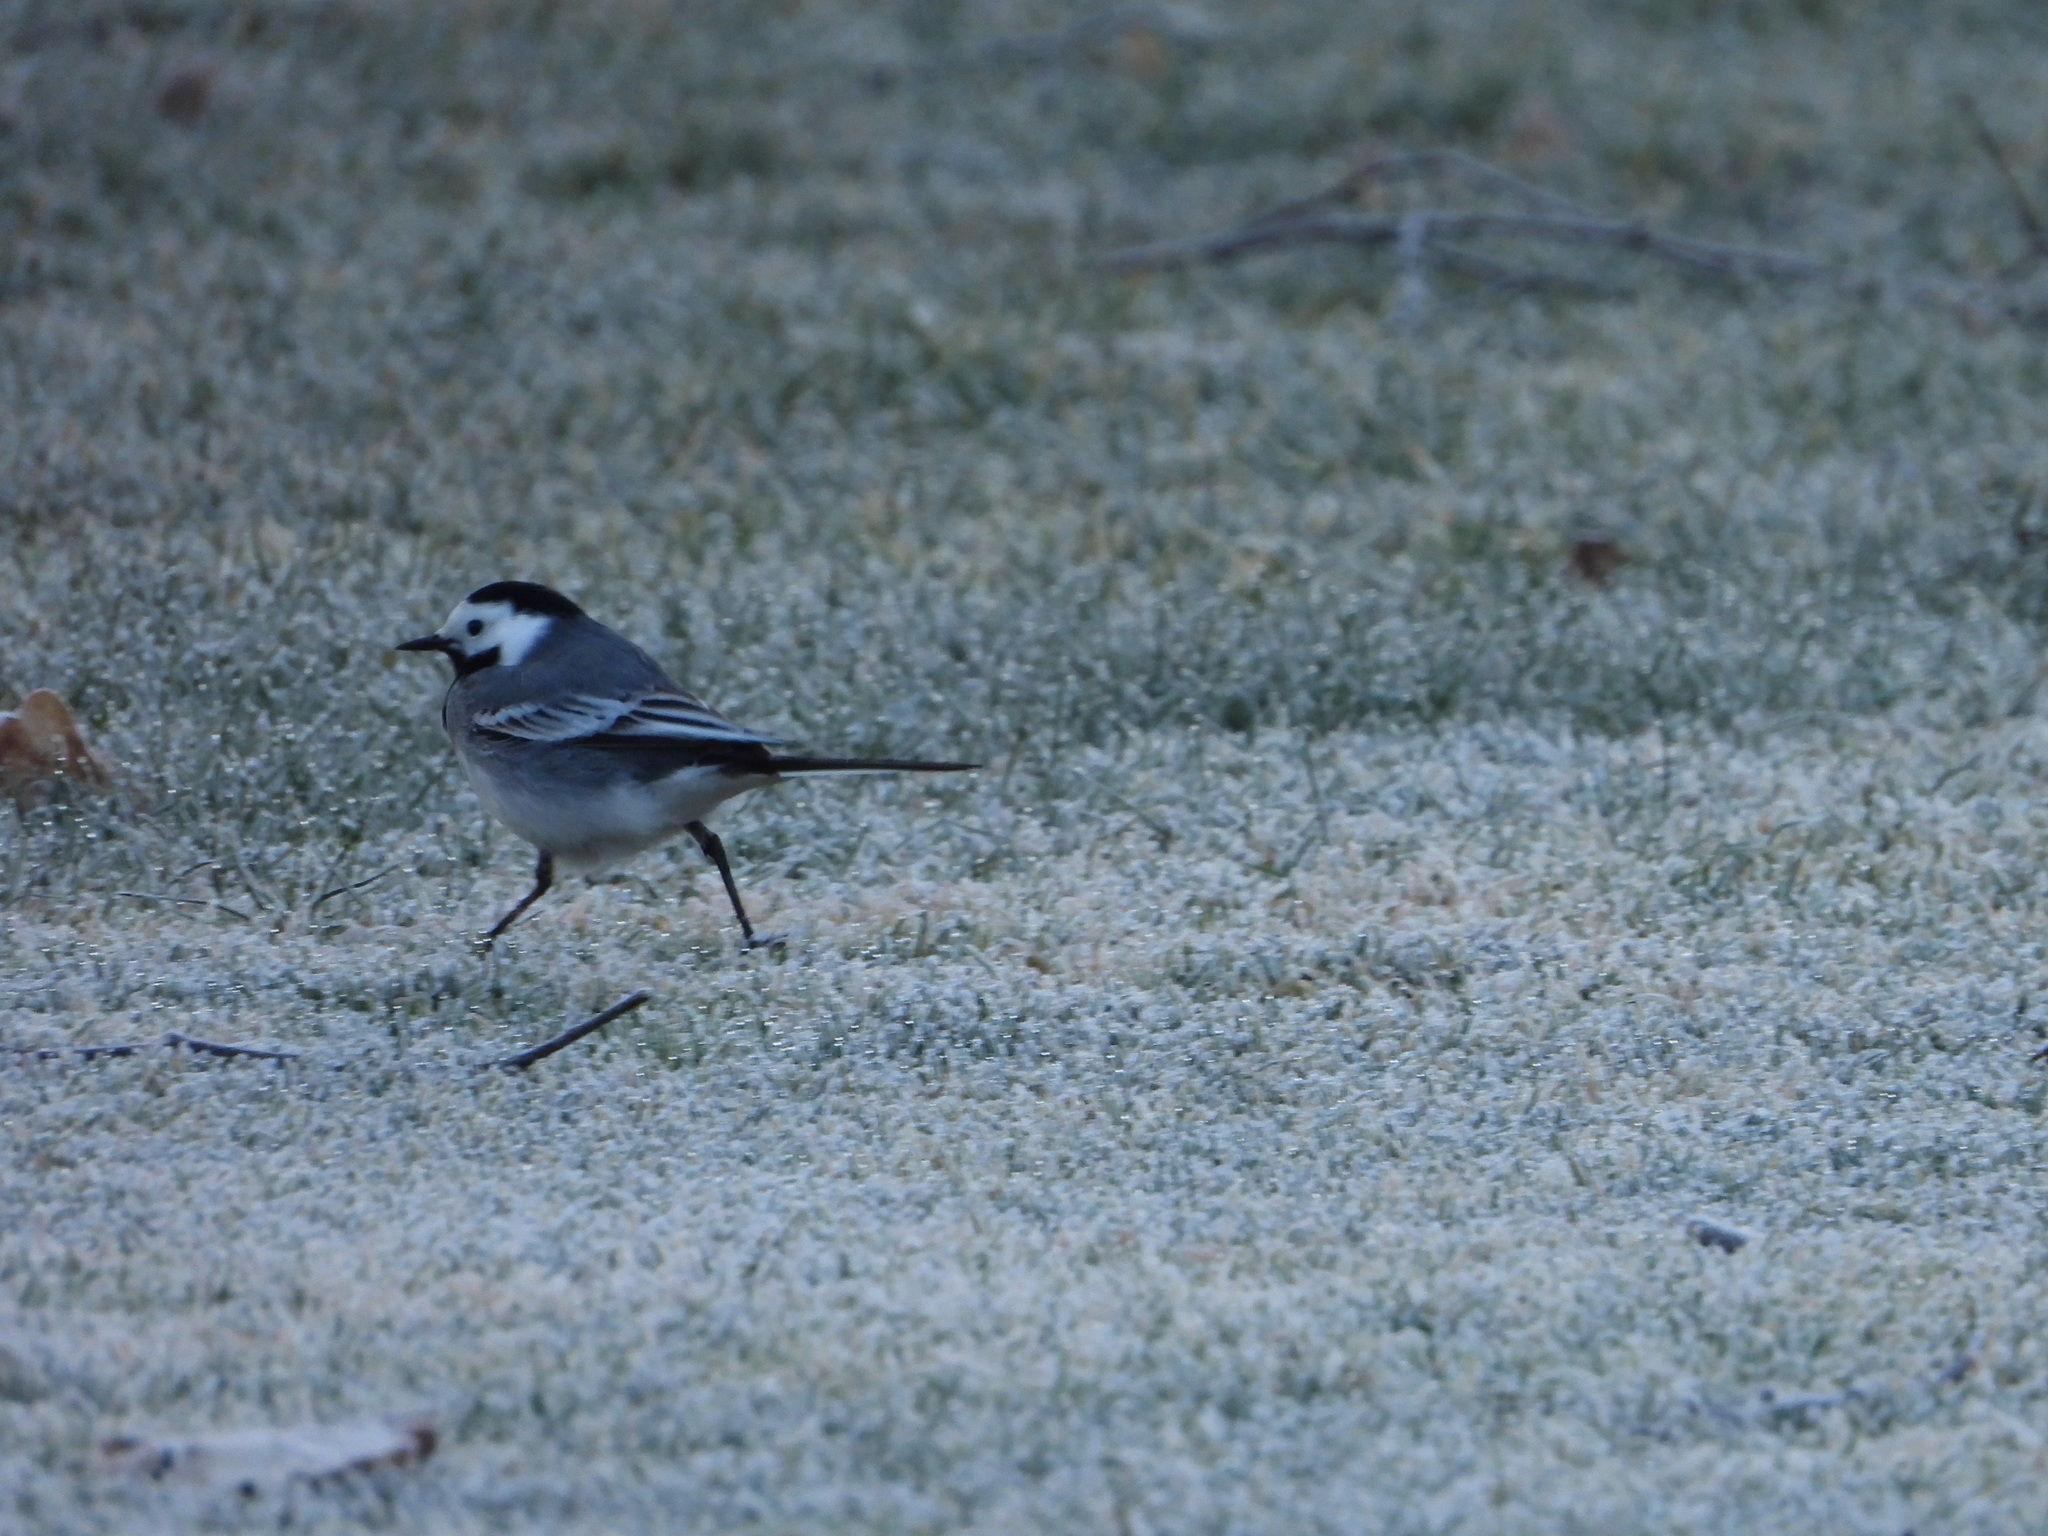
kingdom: Animalia
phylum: Chordata
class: Aves
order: Passeriformes
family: Motacillidae
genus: Motacilla
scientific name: Motacilla alba
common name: White wagtail
